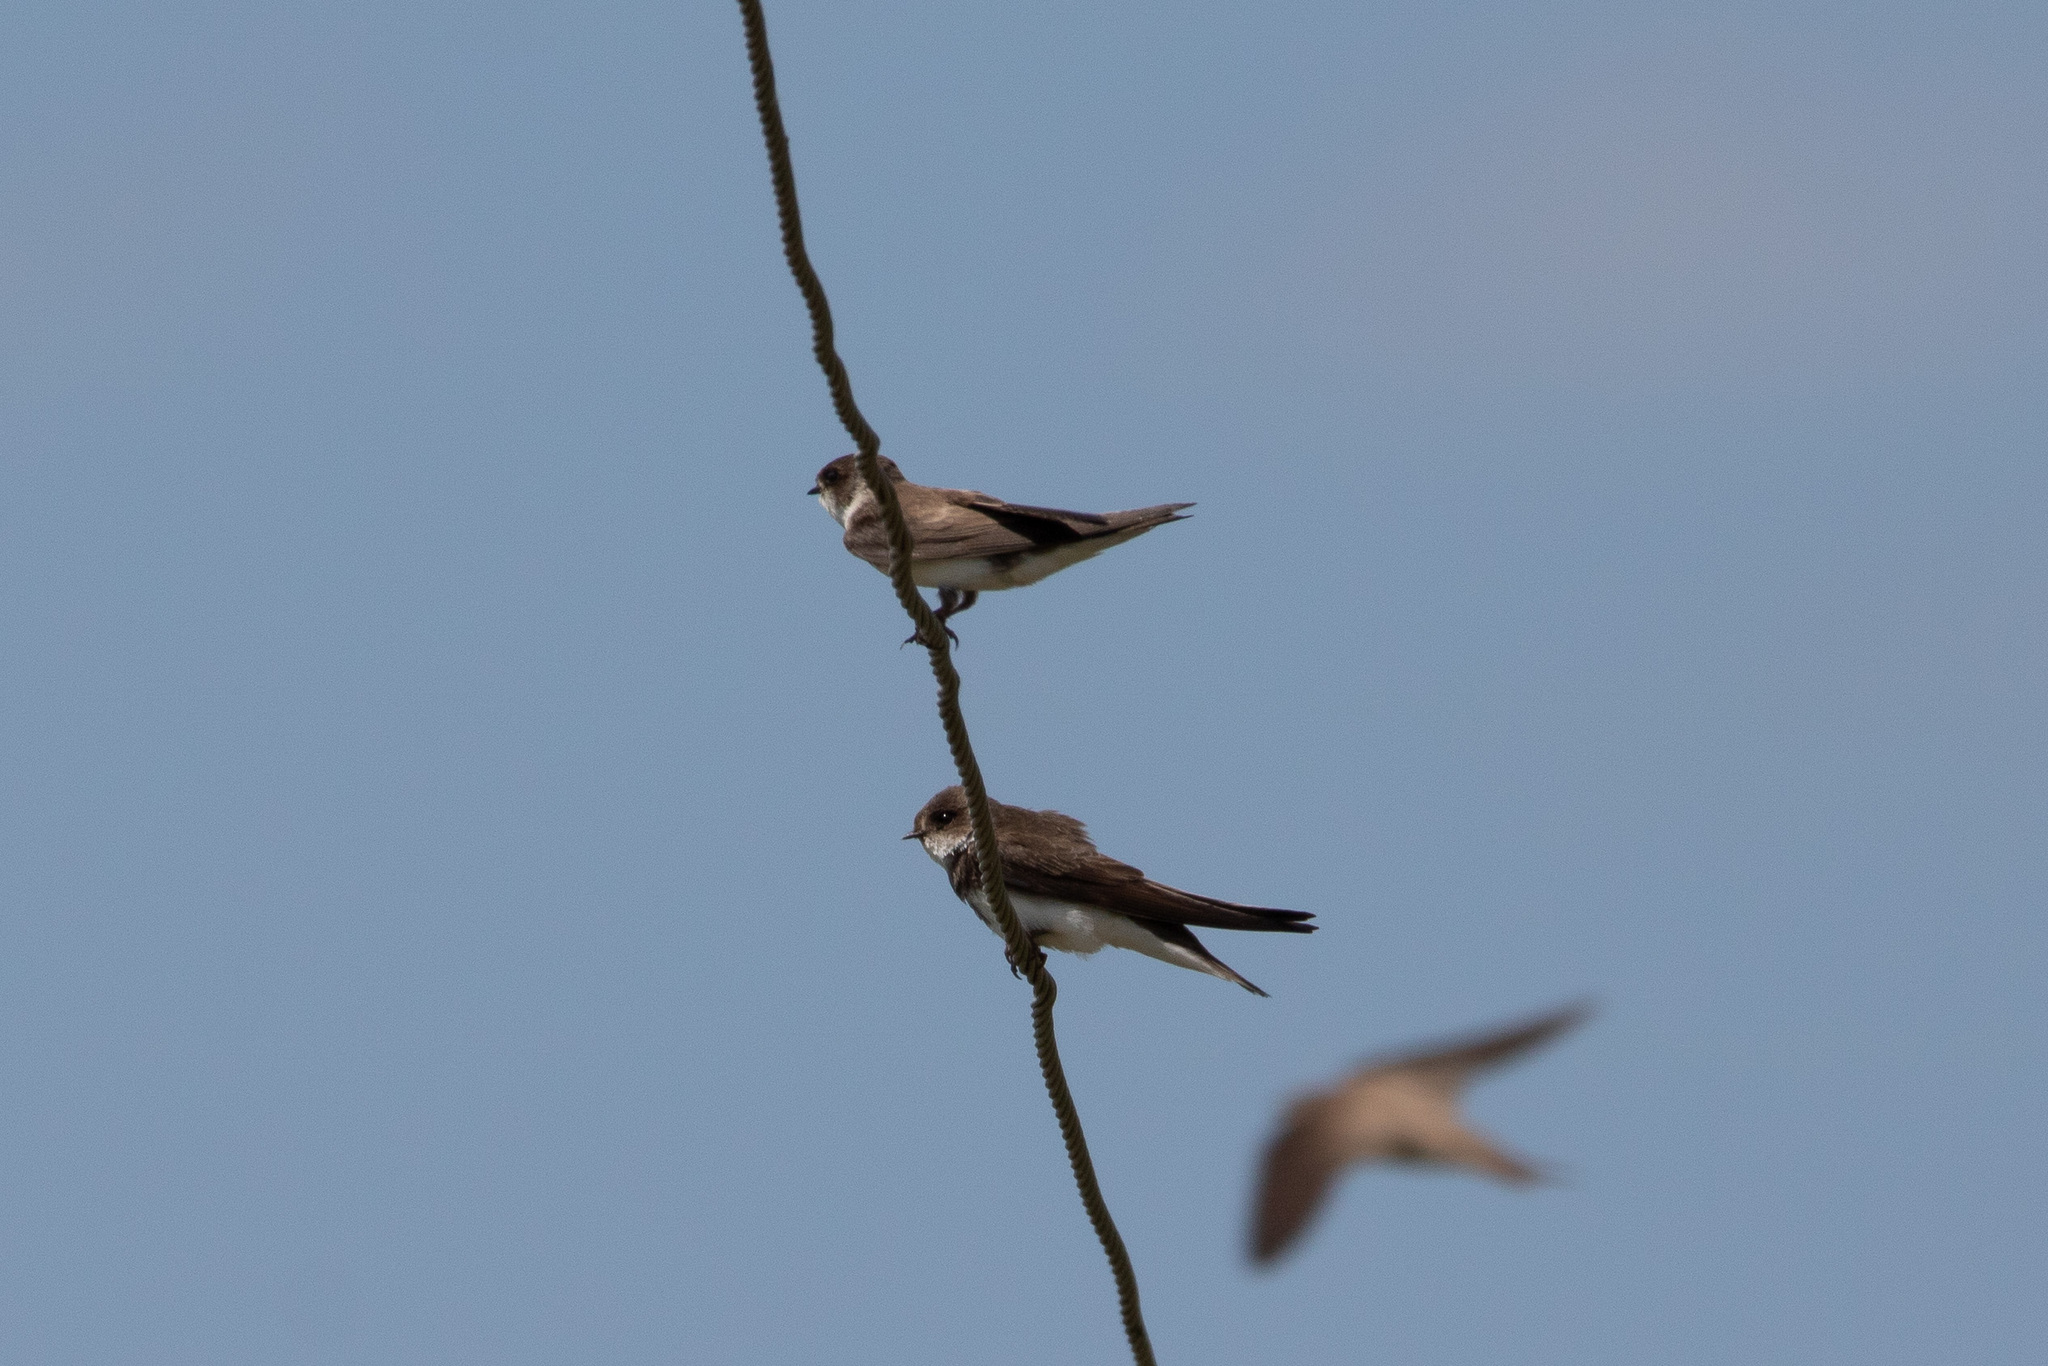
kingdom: Animalia
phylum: Chordata
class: Aves
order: Passeriformes
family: Hirundinidae
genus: Riparia
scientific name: Riparia riparia
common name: Sand martin
